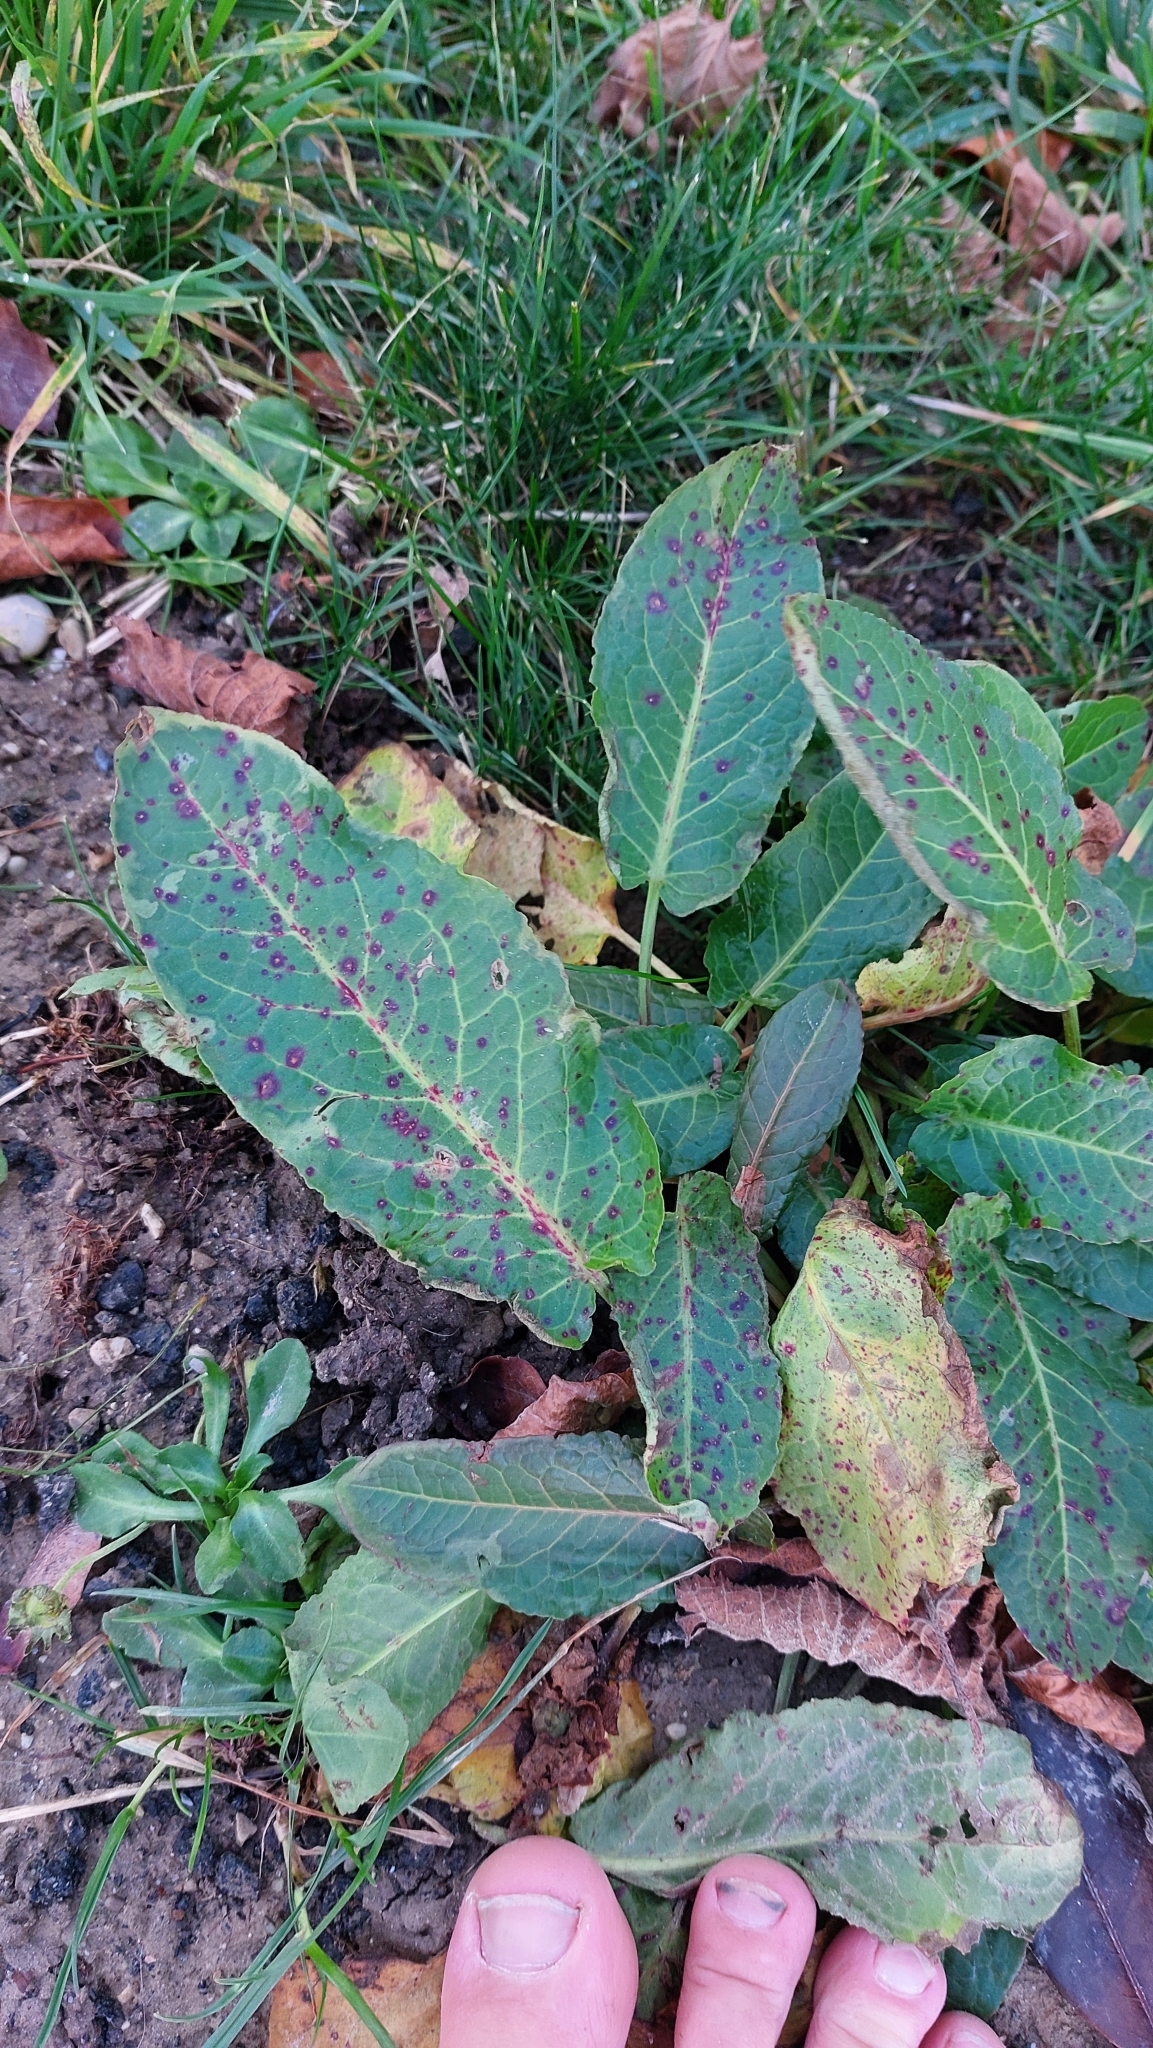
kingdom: Plantae
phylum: Tracheophyta
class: Magnoliopsida
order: Caryophyllales
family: Polygonaceae
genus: Rumex
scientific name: Rumex obtusifolius
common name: Bitter dock
